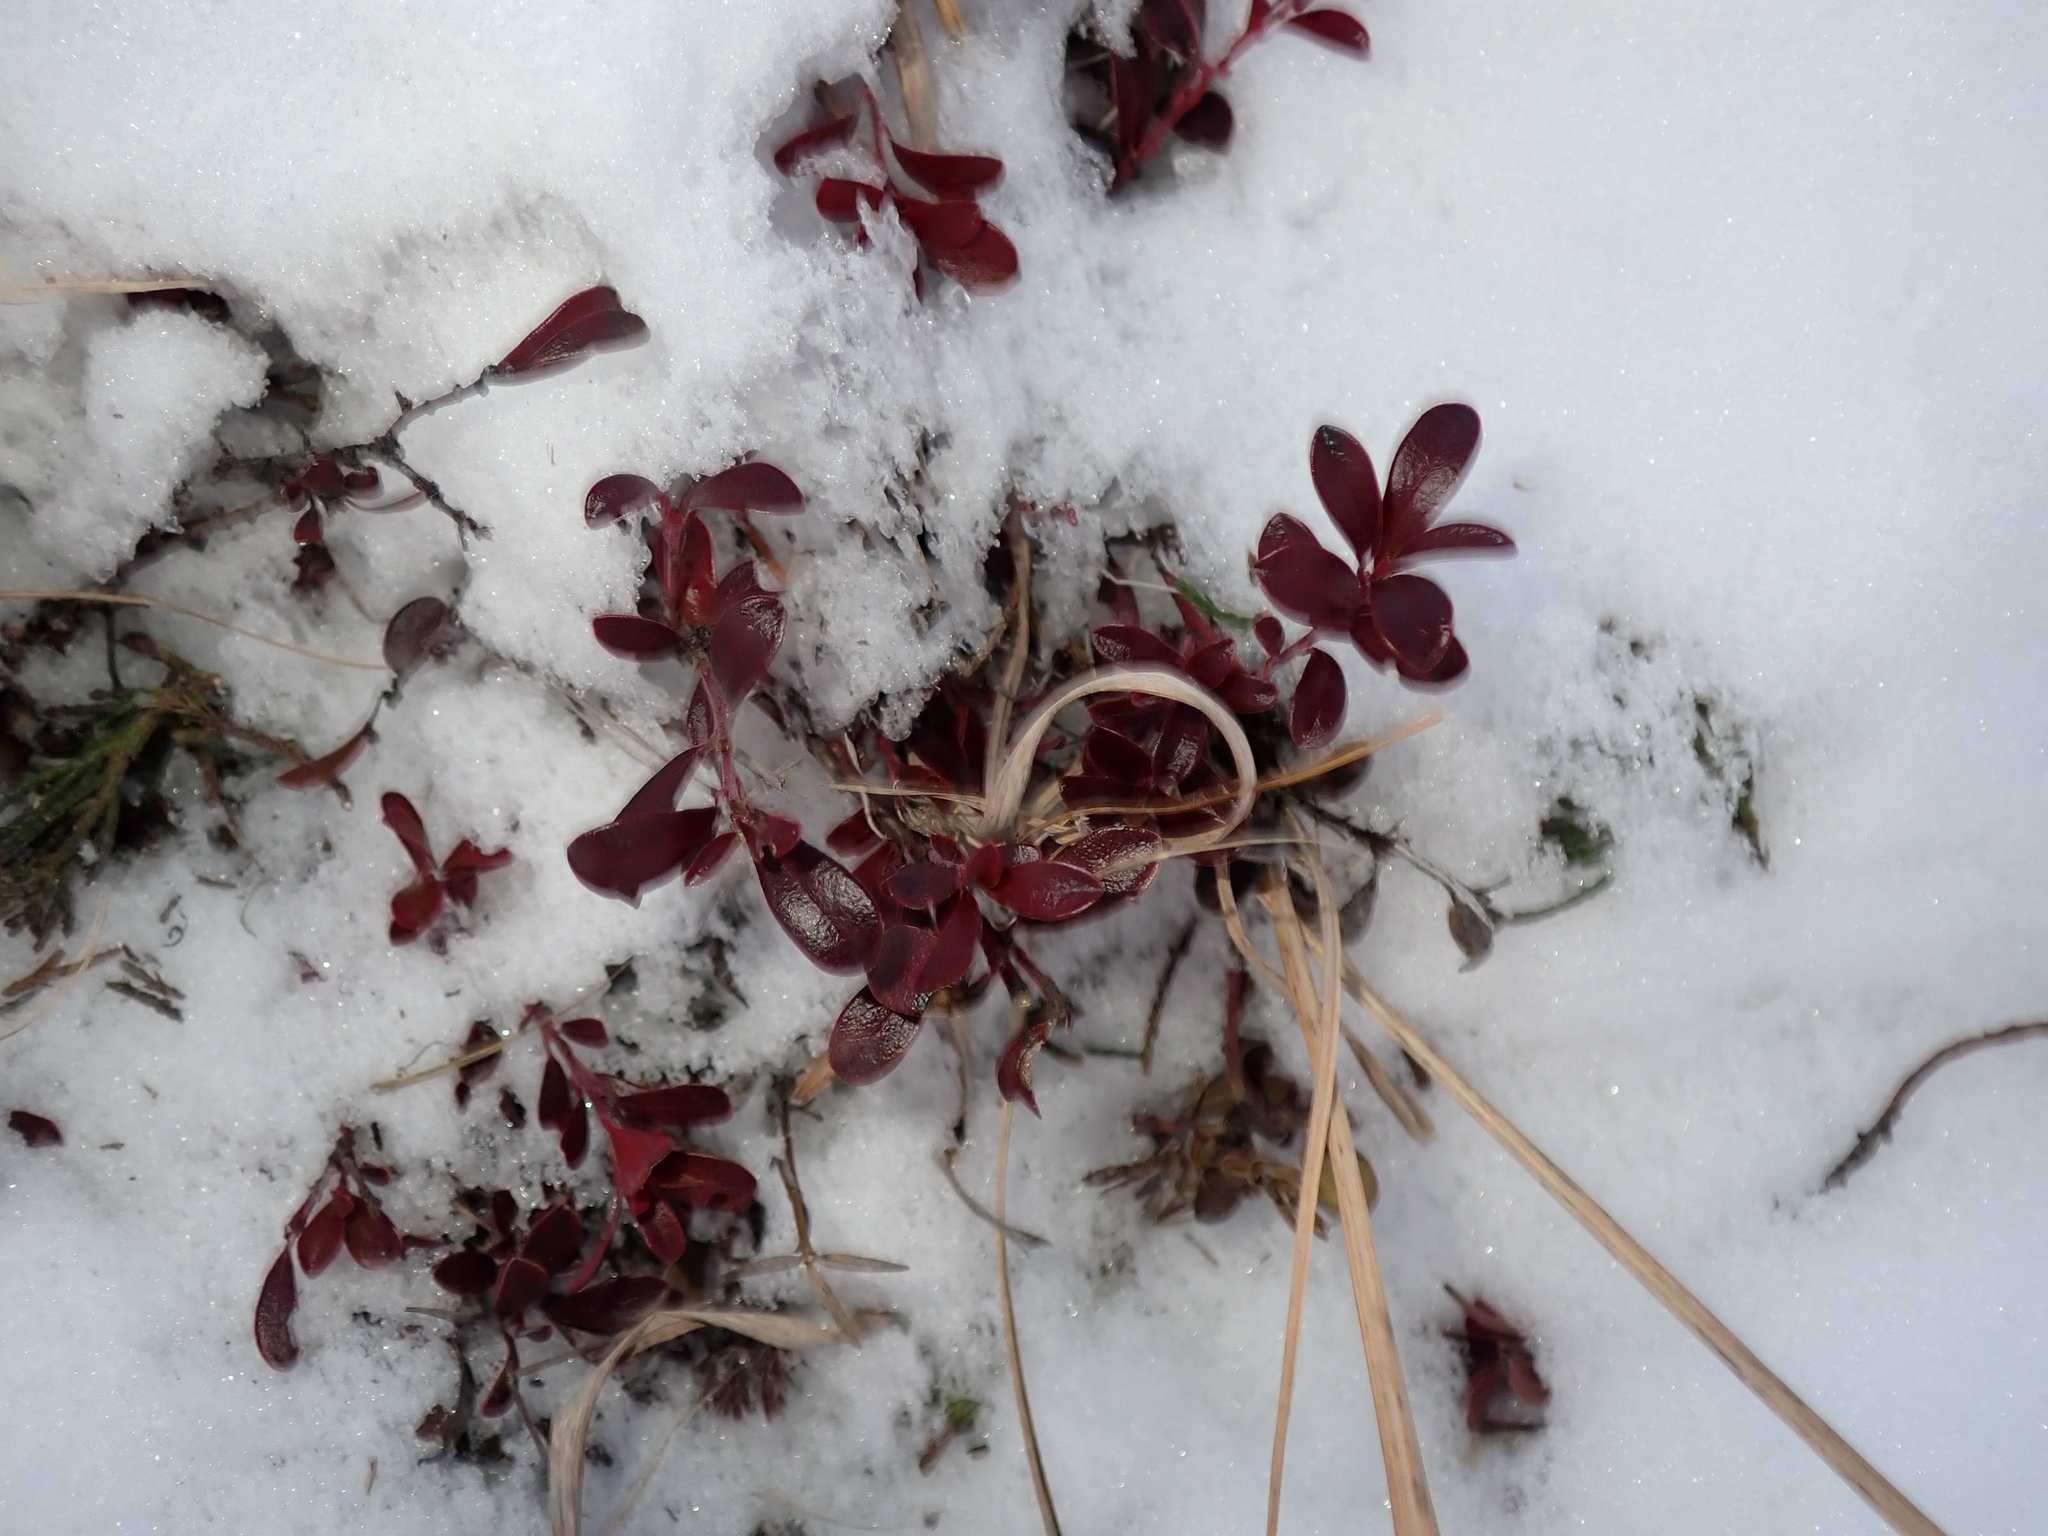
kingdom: Plantae
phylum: Tracheophyta
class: Magnoliopsida
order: Ericales
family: Ericaceae
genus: Arctostaphylos
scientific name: Arctostaphylos uva-ursi
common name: Bearberry
